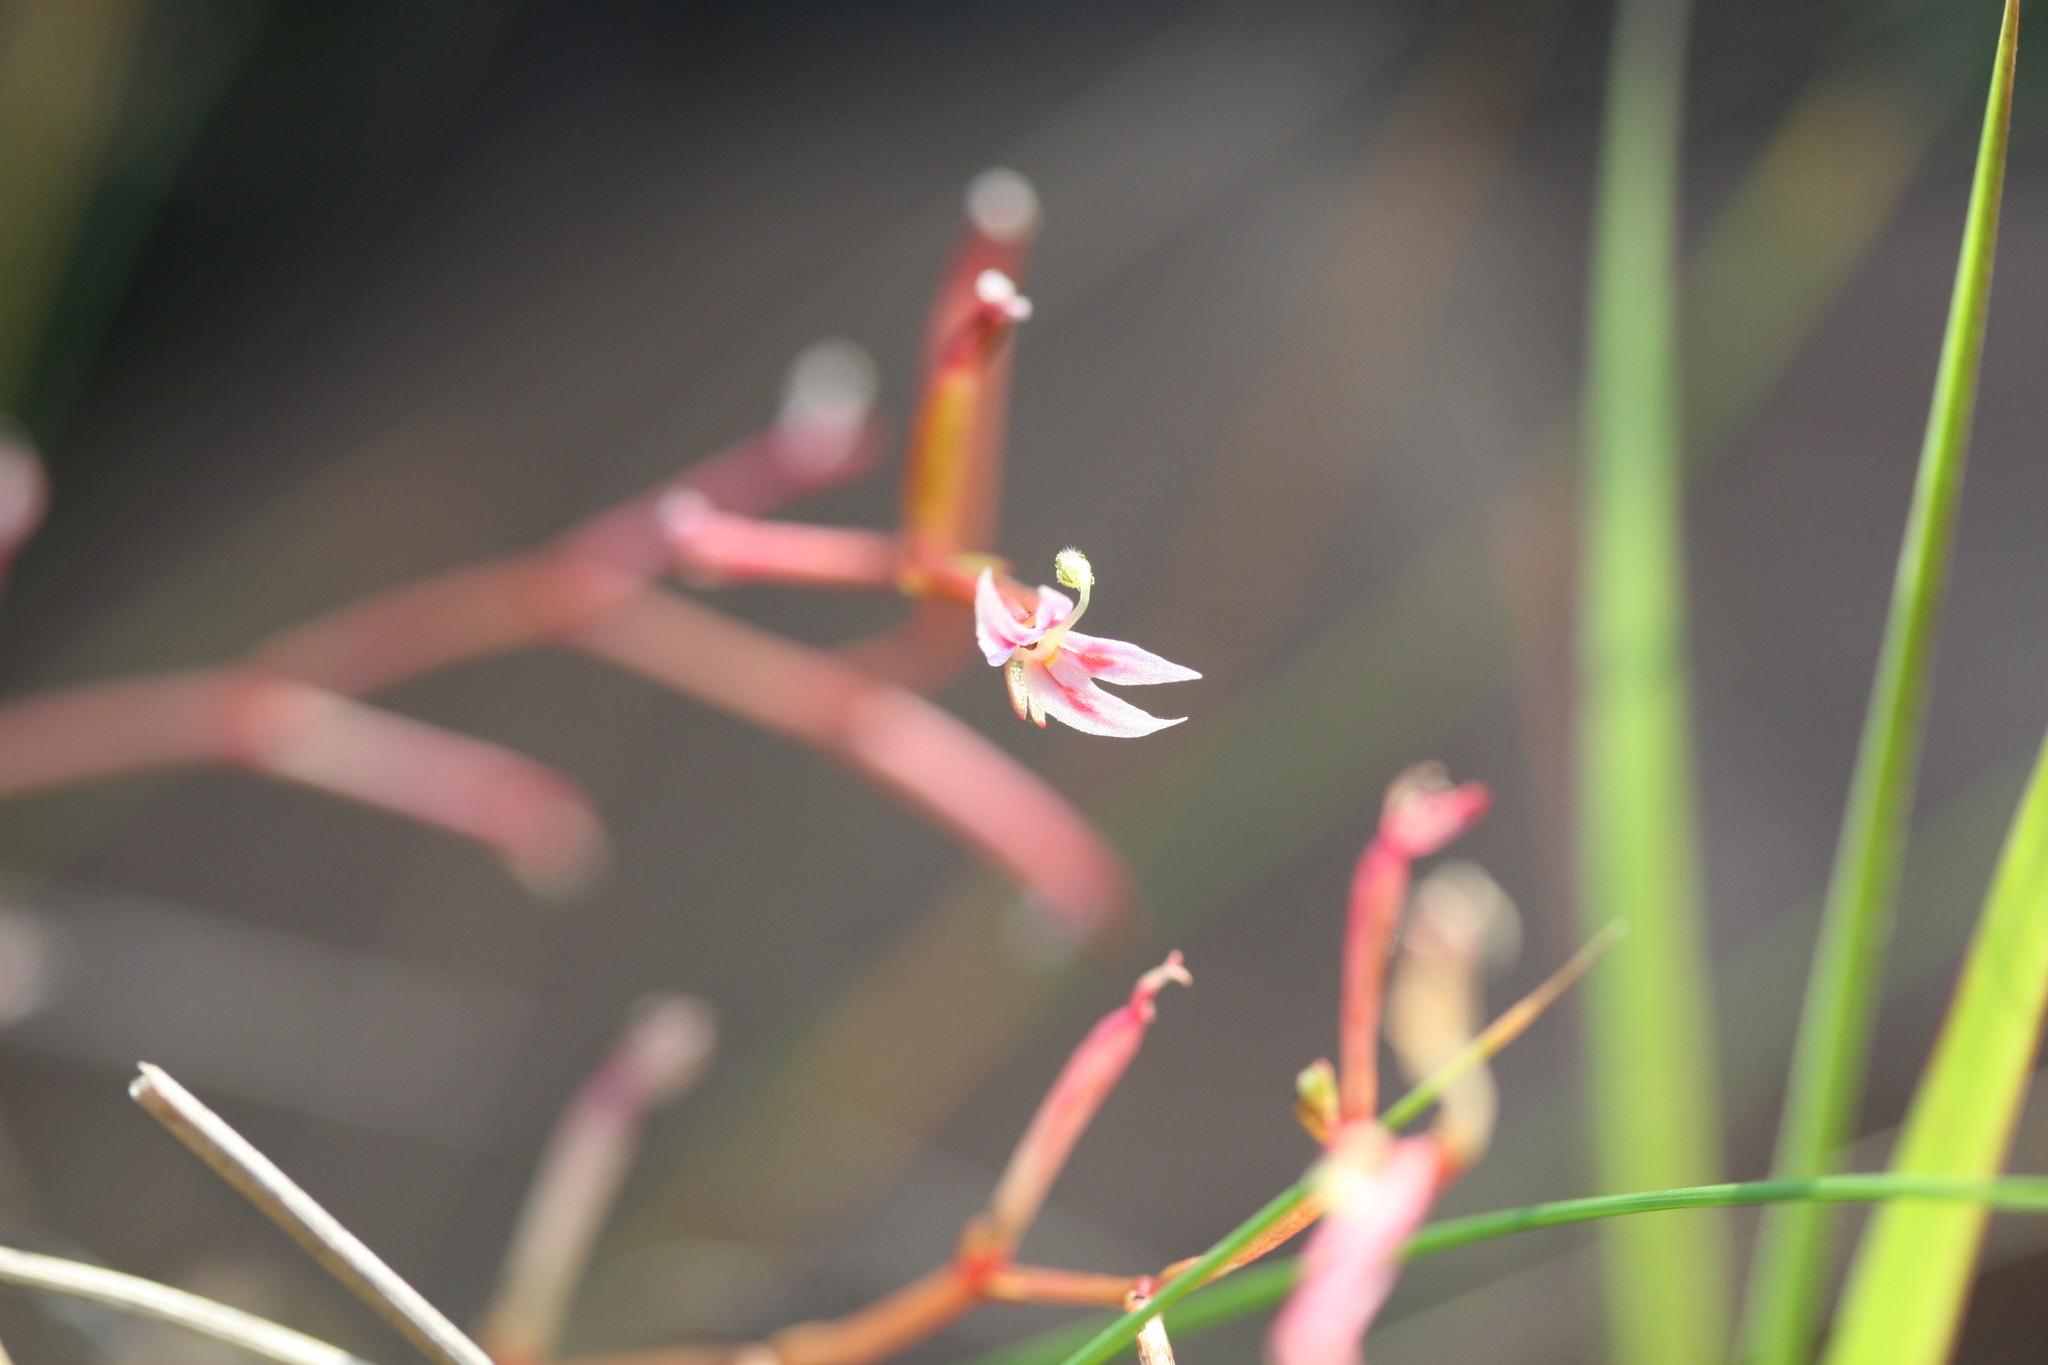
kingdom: Plantae
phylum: Tracheophyta
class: Magnoliopsida
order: Asterales
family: Stylidiaceae
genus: Stylidium
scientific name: Stylidium cordifolium
